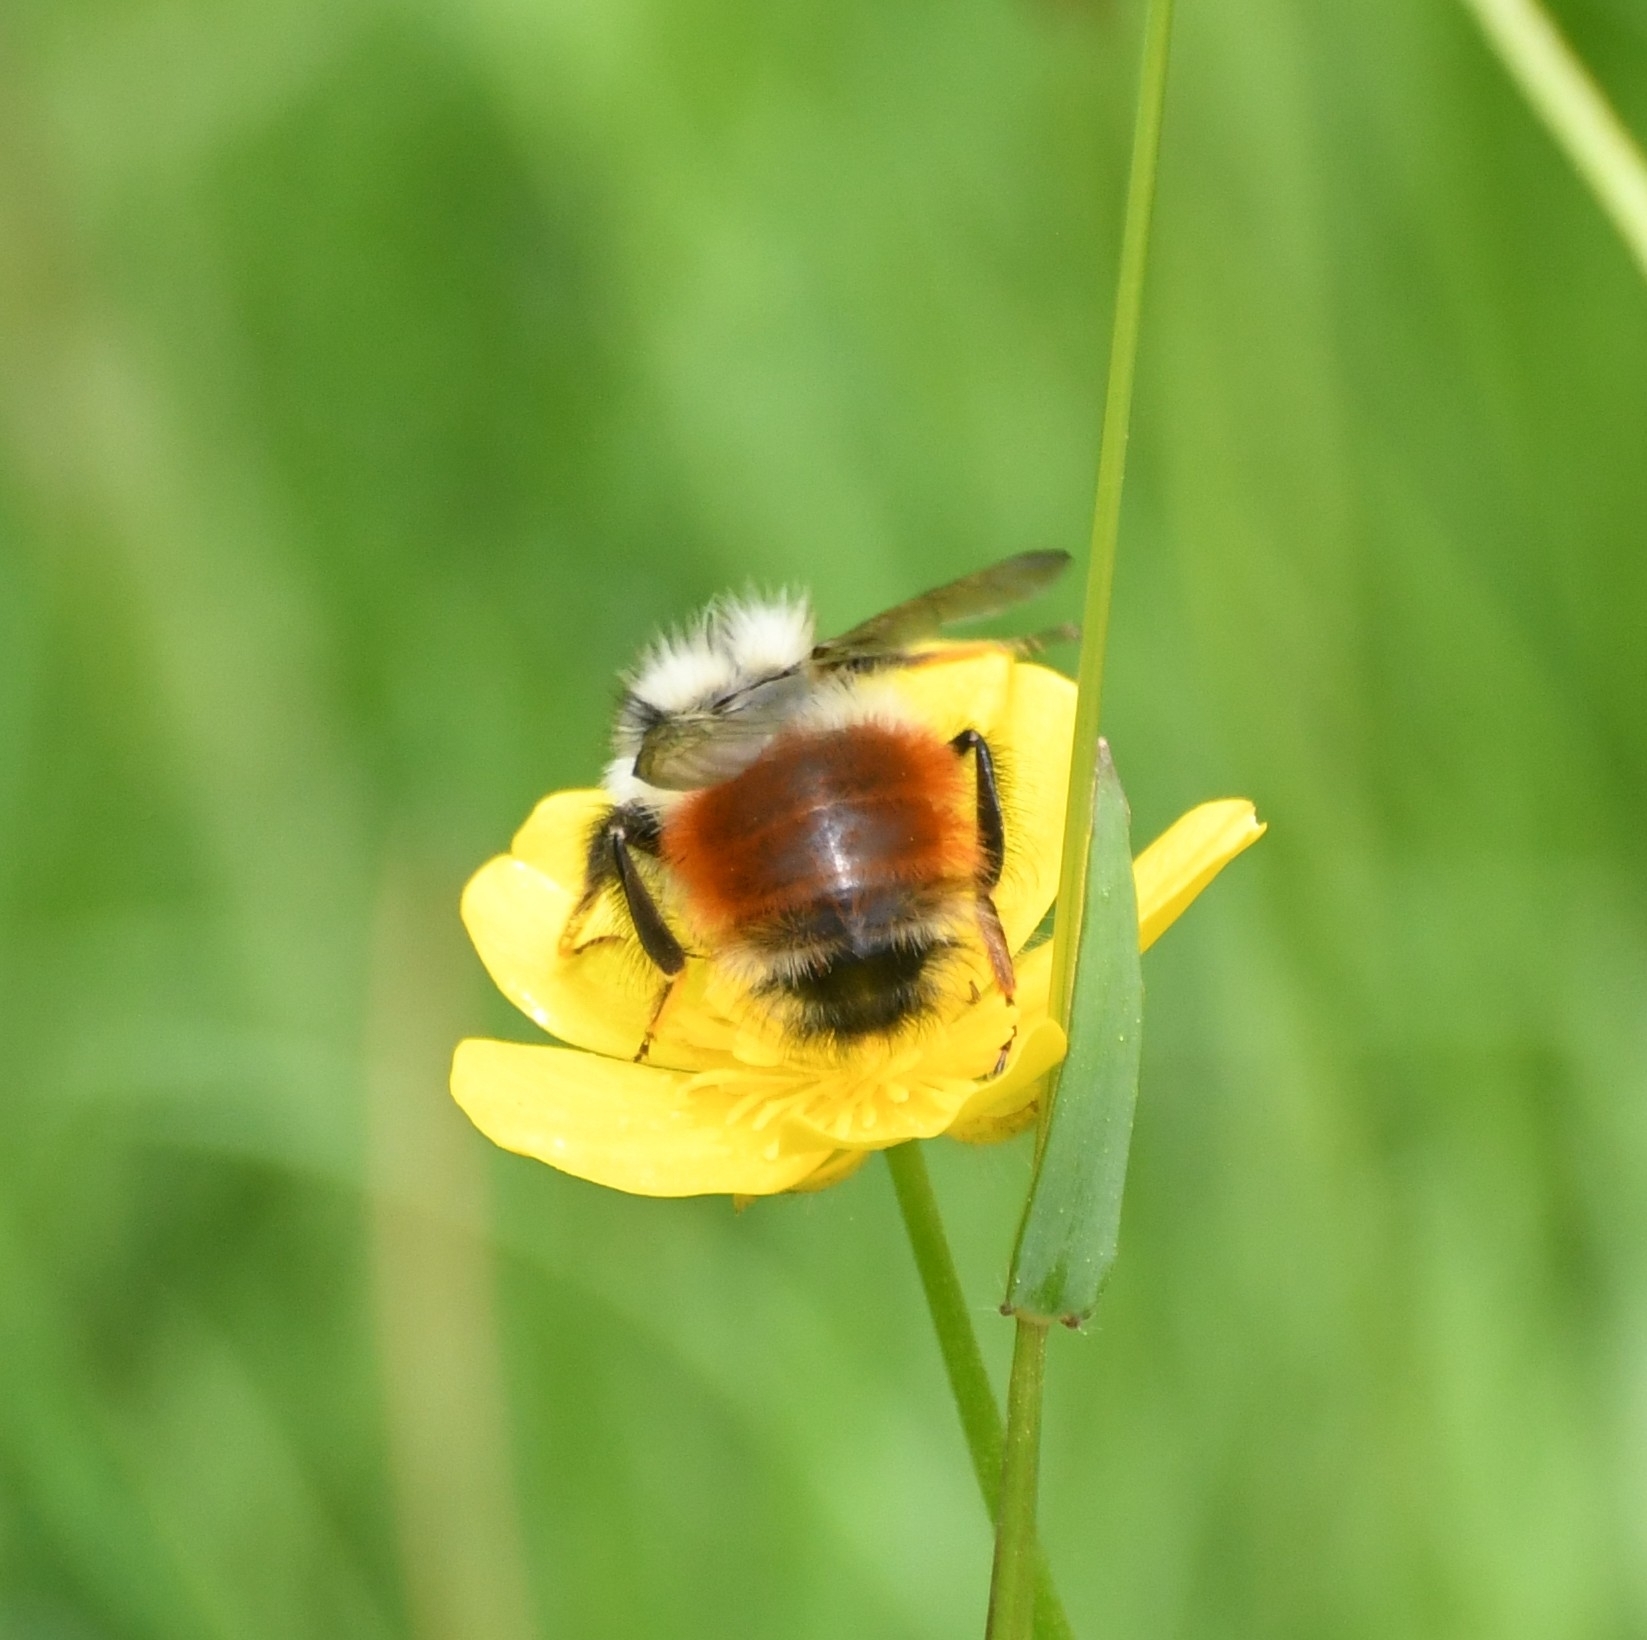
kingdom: Animalia
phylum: Arthropoda
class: Insecta
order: Hymenoptera
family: Apidae
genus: Bombus
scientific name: Bombus melanopygus
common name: Black tail bumble bee
